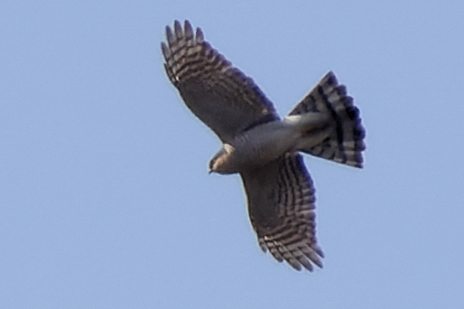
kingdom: Animalia
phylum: Chordata
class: Aves
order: Accipitriformes
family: Accipitridae
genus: Accipiter
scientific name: Accipiter nisus
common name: Eurasian sparrowhawk
